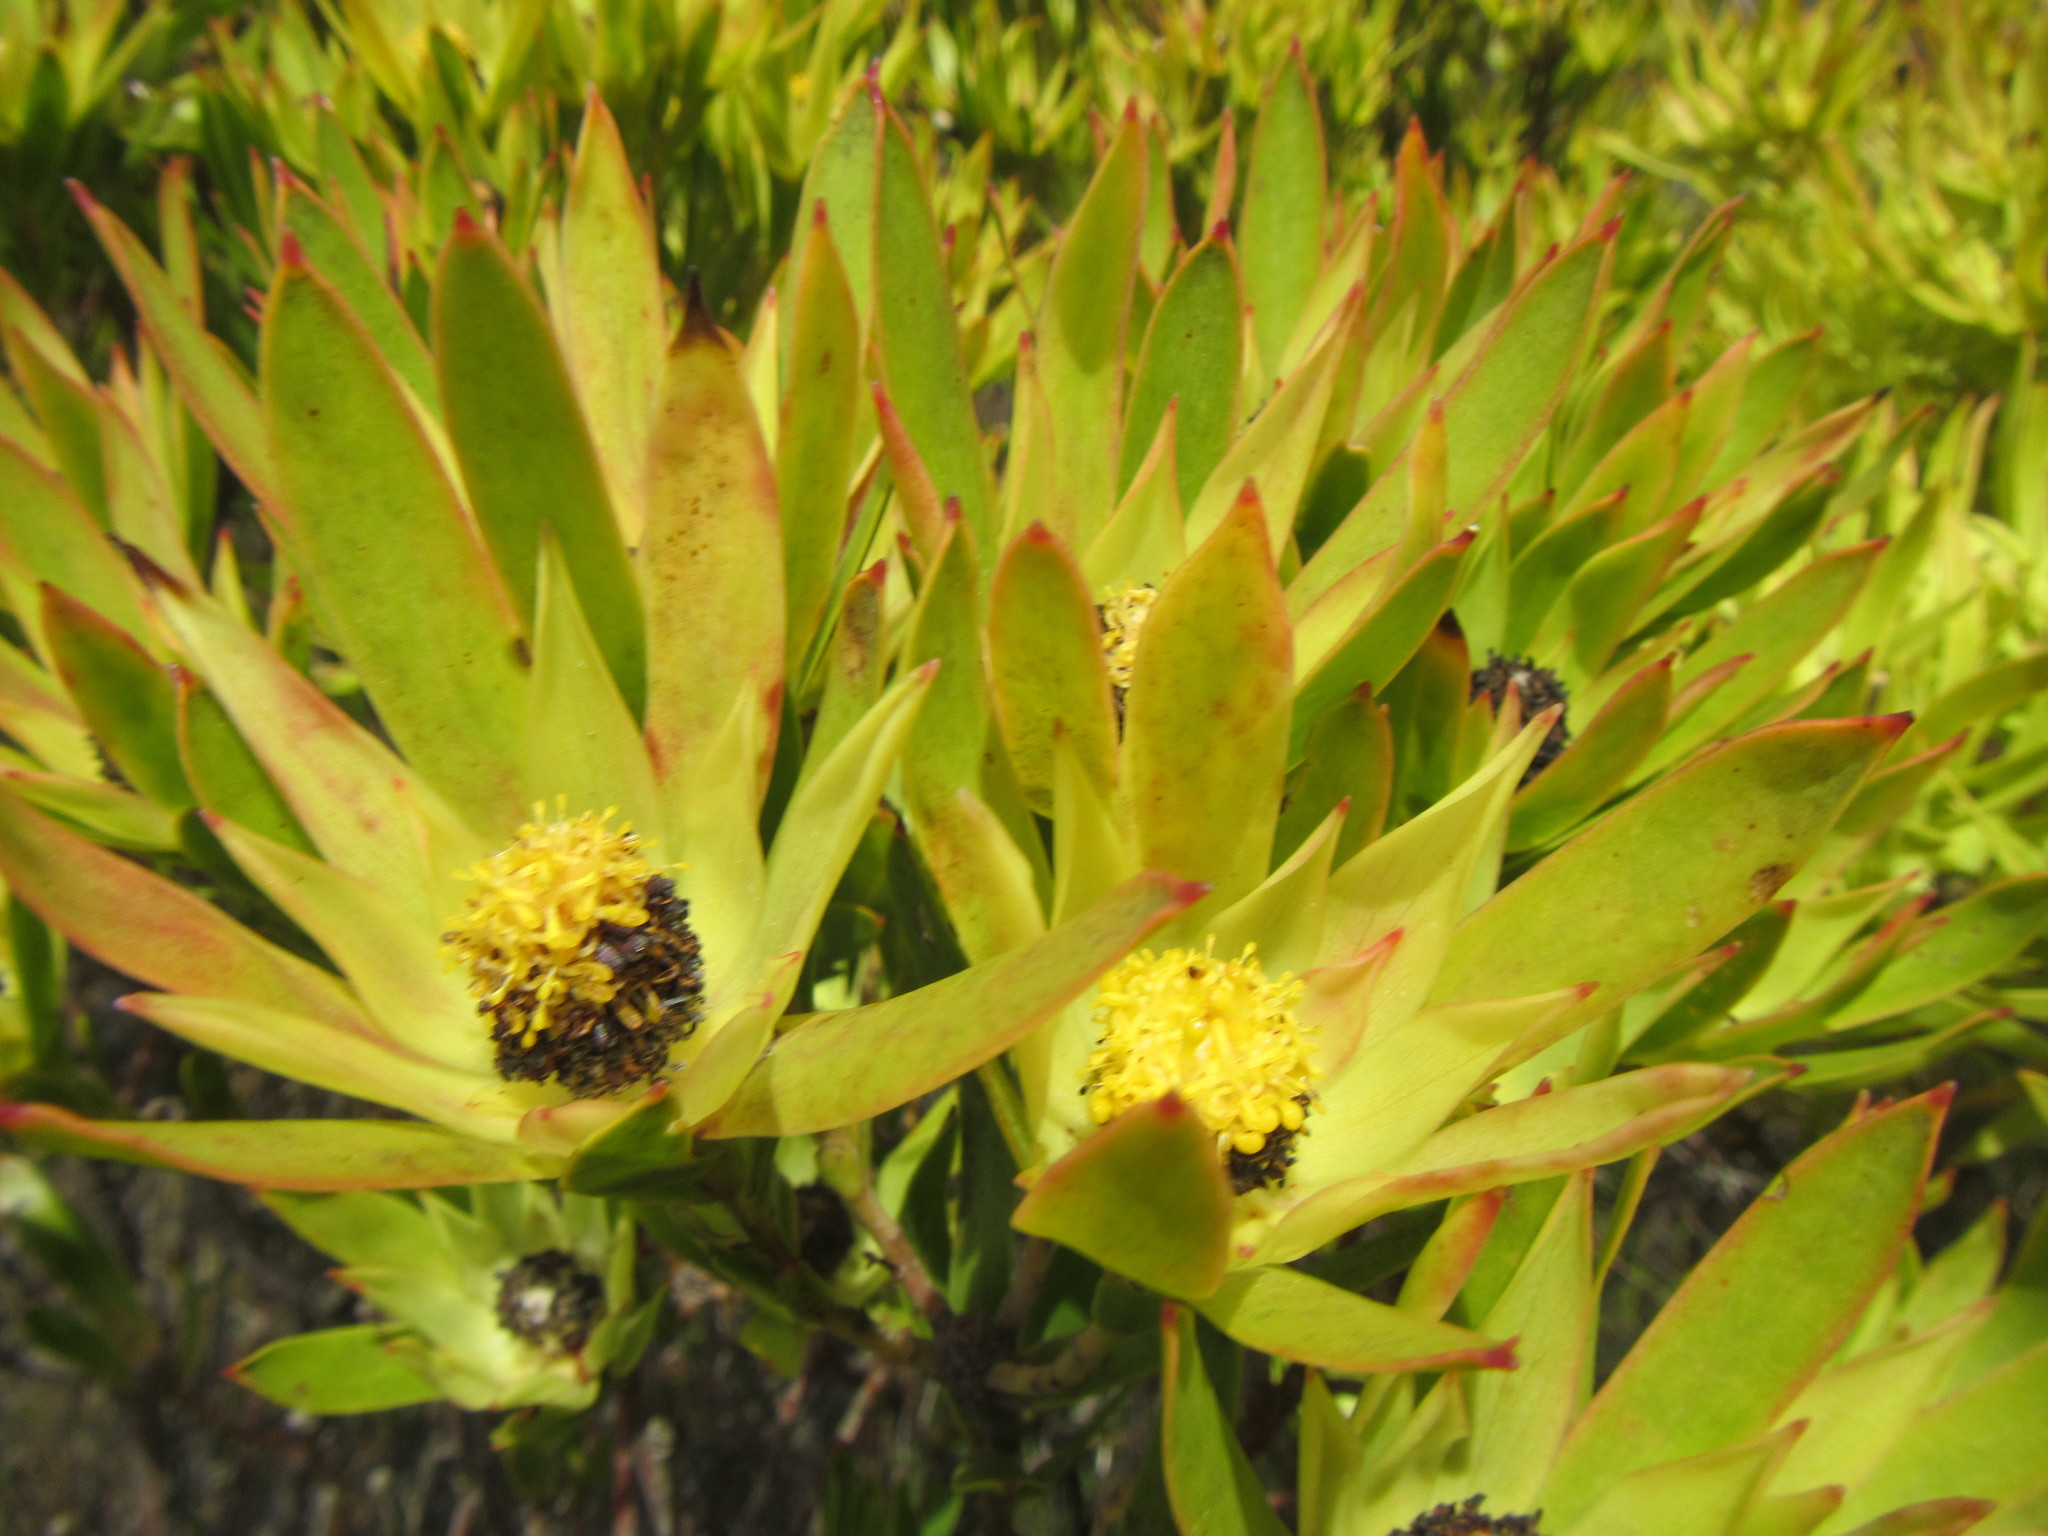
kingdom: Plantae
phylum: Tracheophyta
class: Magnoliopsida
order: Proteales
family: Proteaceae
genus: Leucadendron
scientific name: Leucadendron
